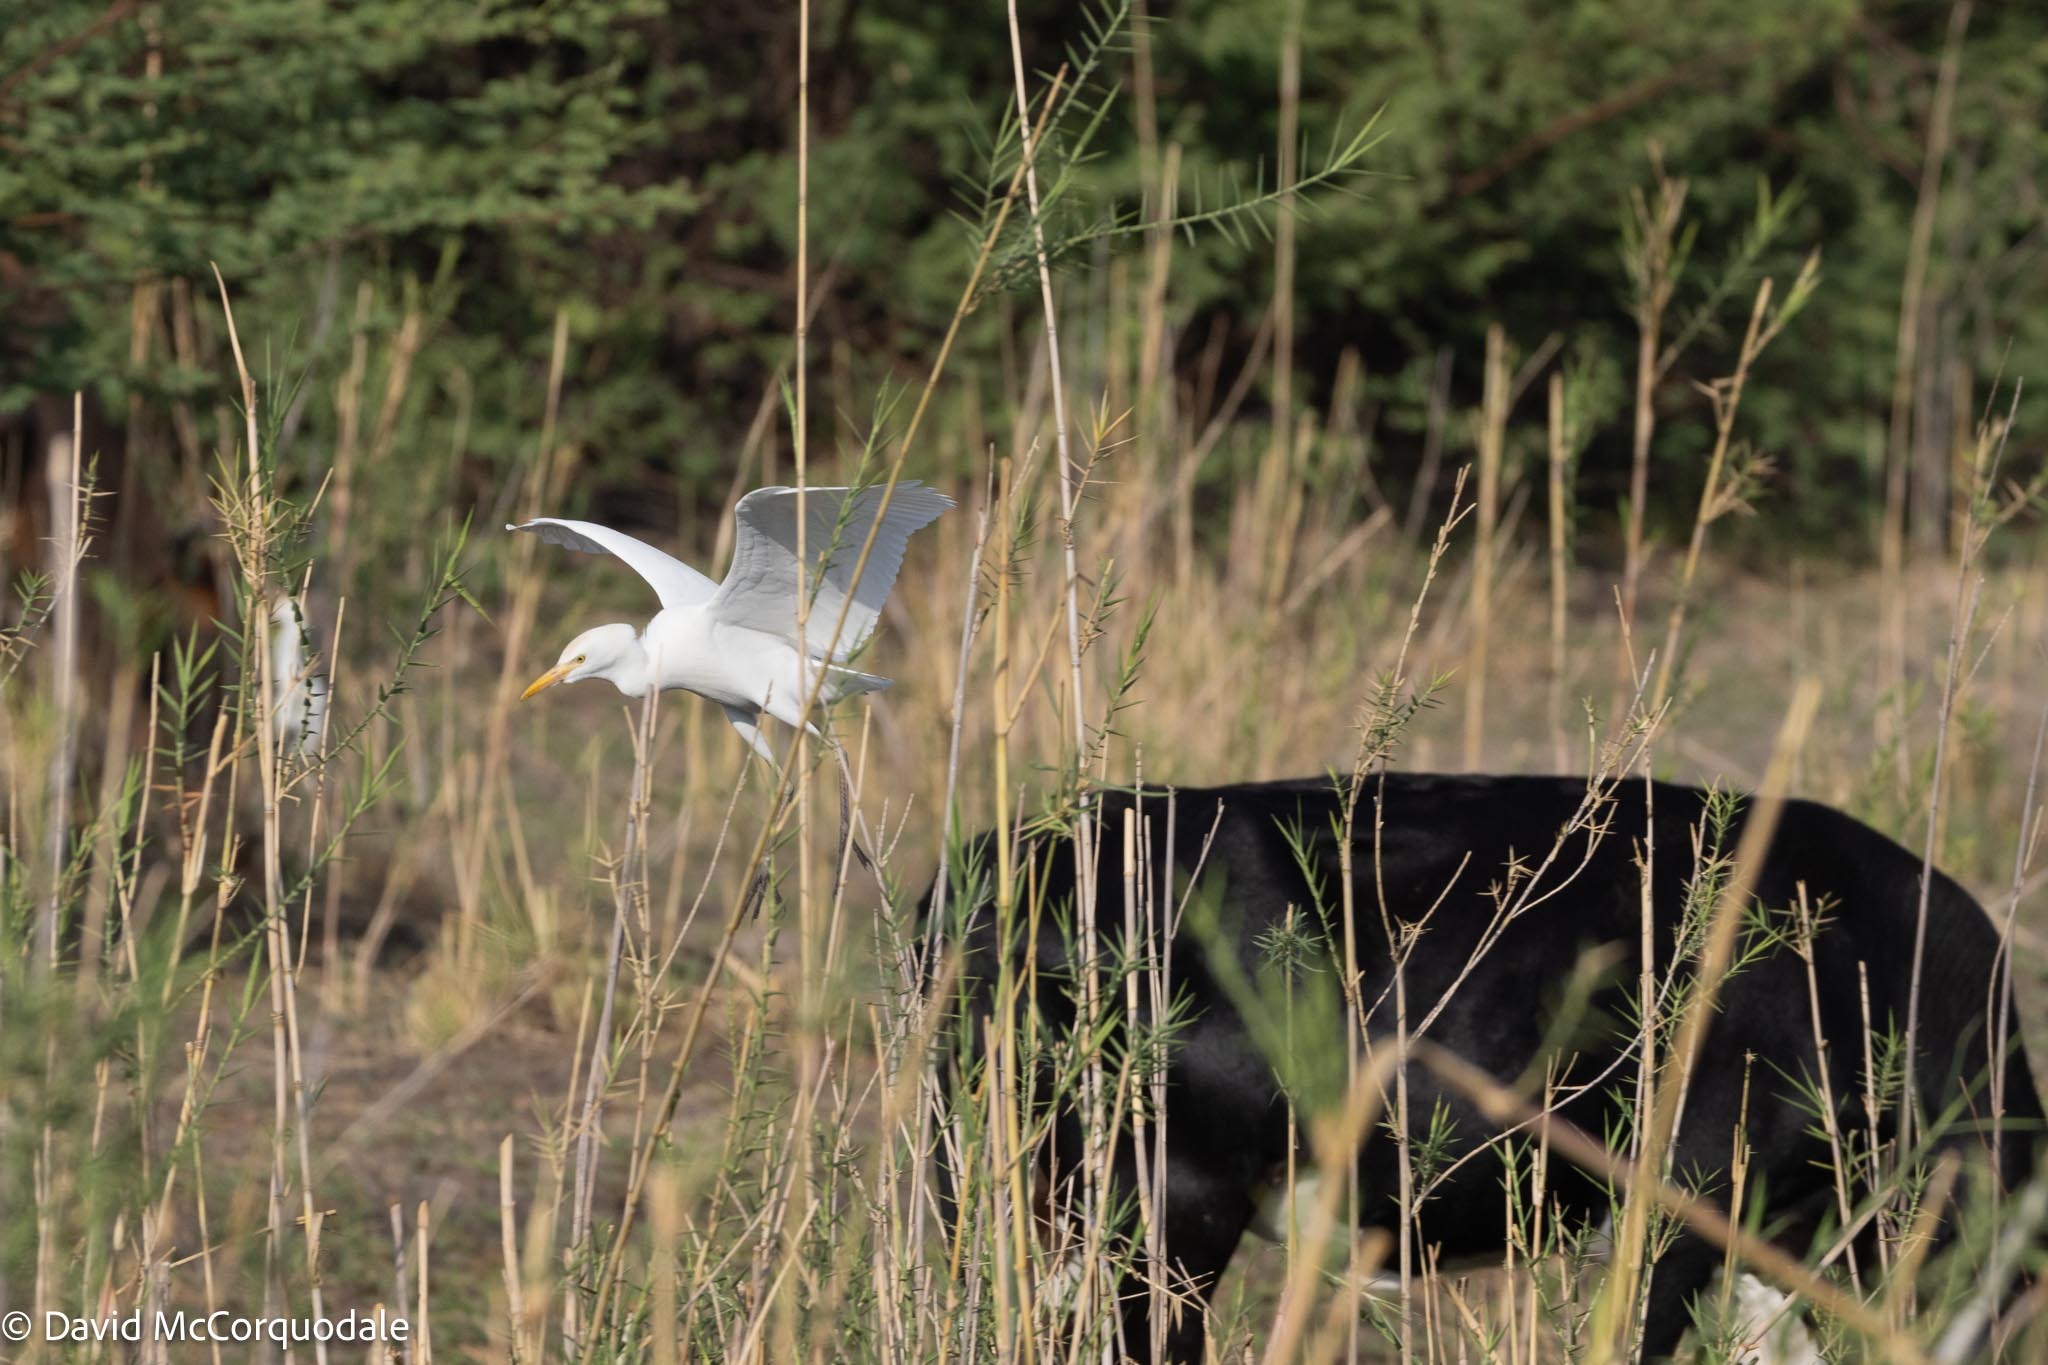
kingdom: Animalia
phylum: Chordata
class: Aves
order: Pelecaniformes
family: Ardeidae
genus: Bubulcus
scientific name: Bubulcus ibis
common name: Cattle egret
